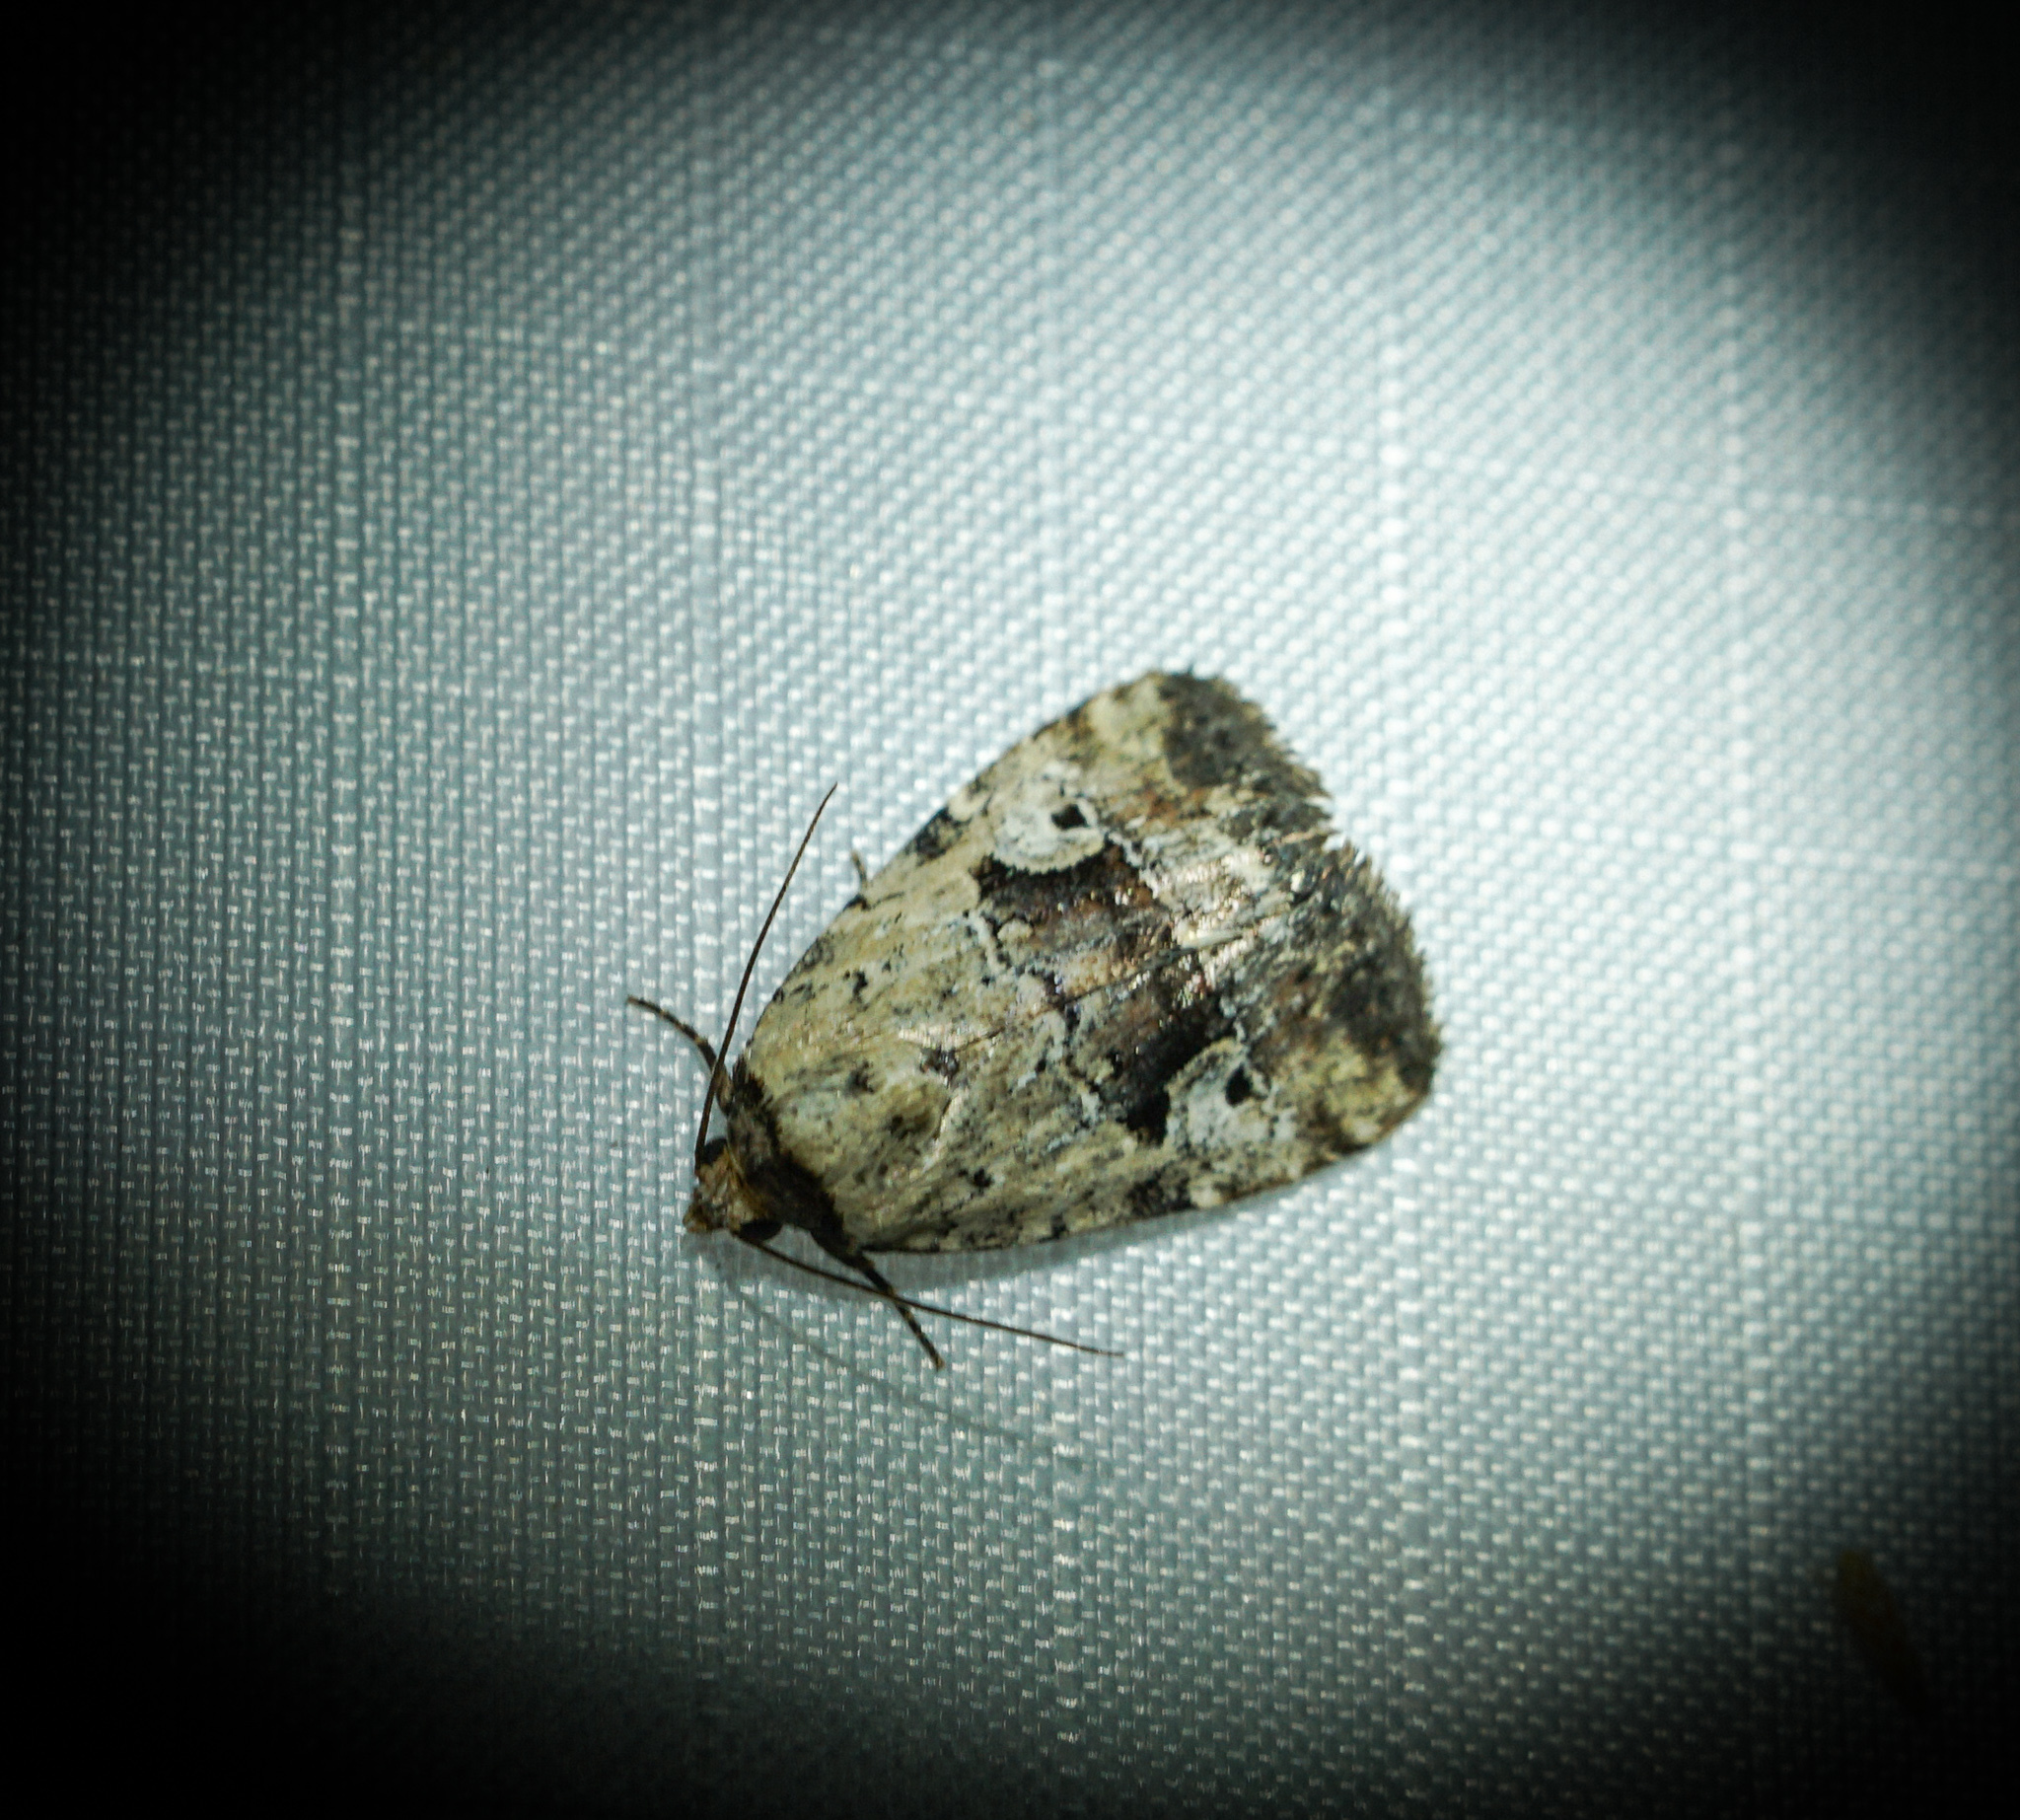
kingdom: Animalia
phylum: Arthropoda
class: Insecta
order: Lepidoptera
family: Noctuidae
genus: Elaphria
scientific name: Elaphria festivoides
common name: Festive midget
